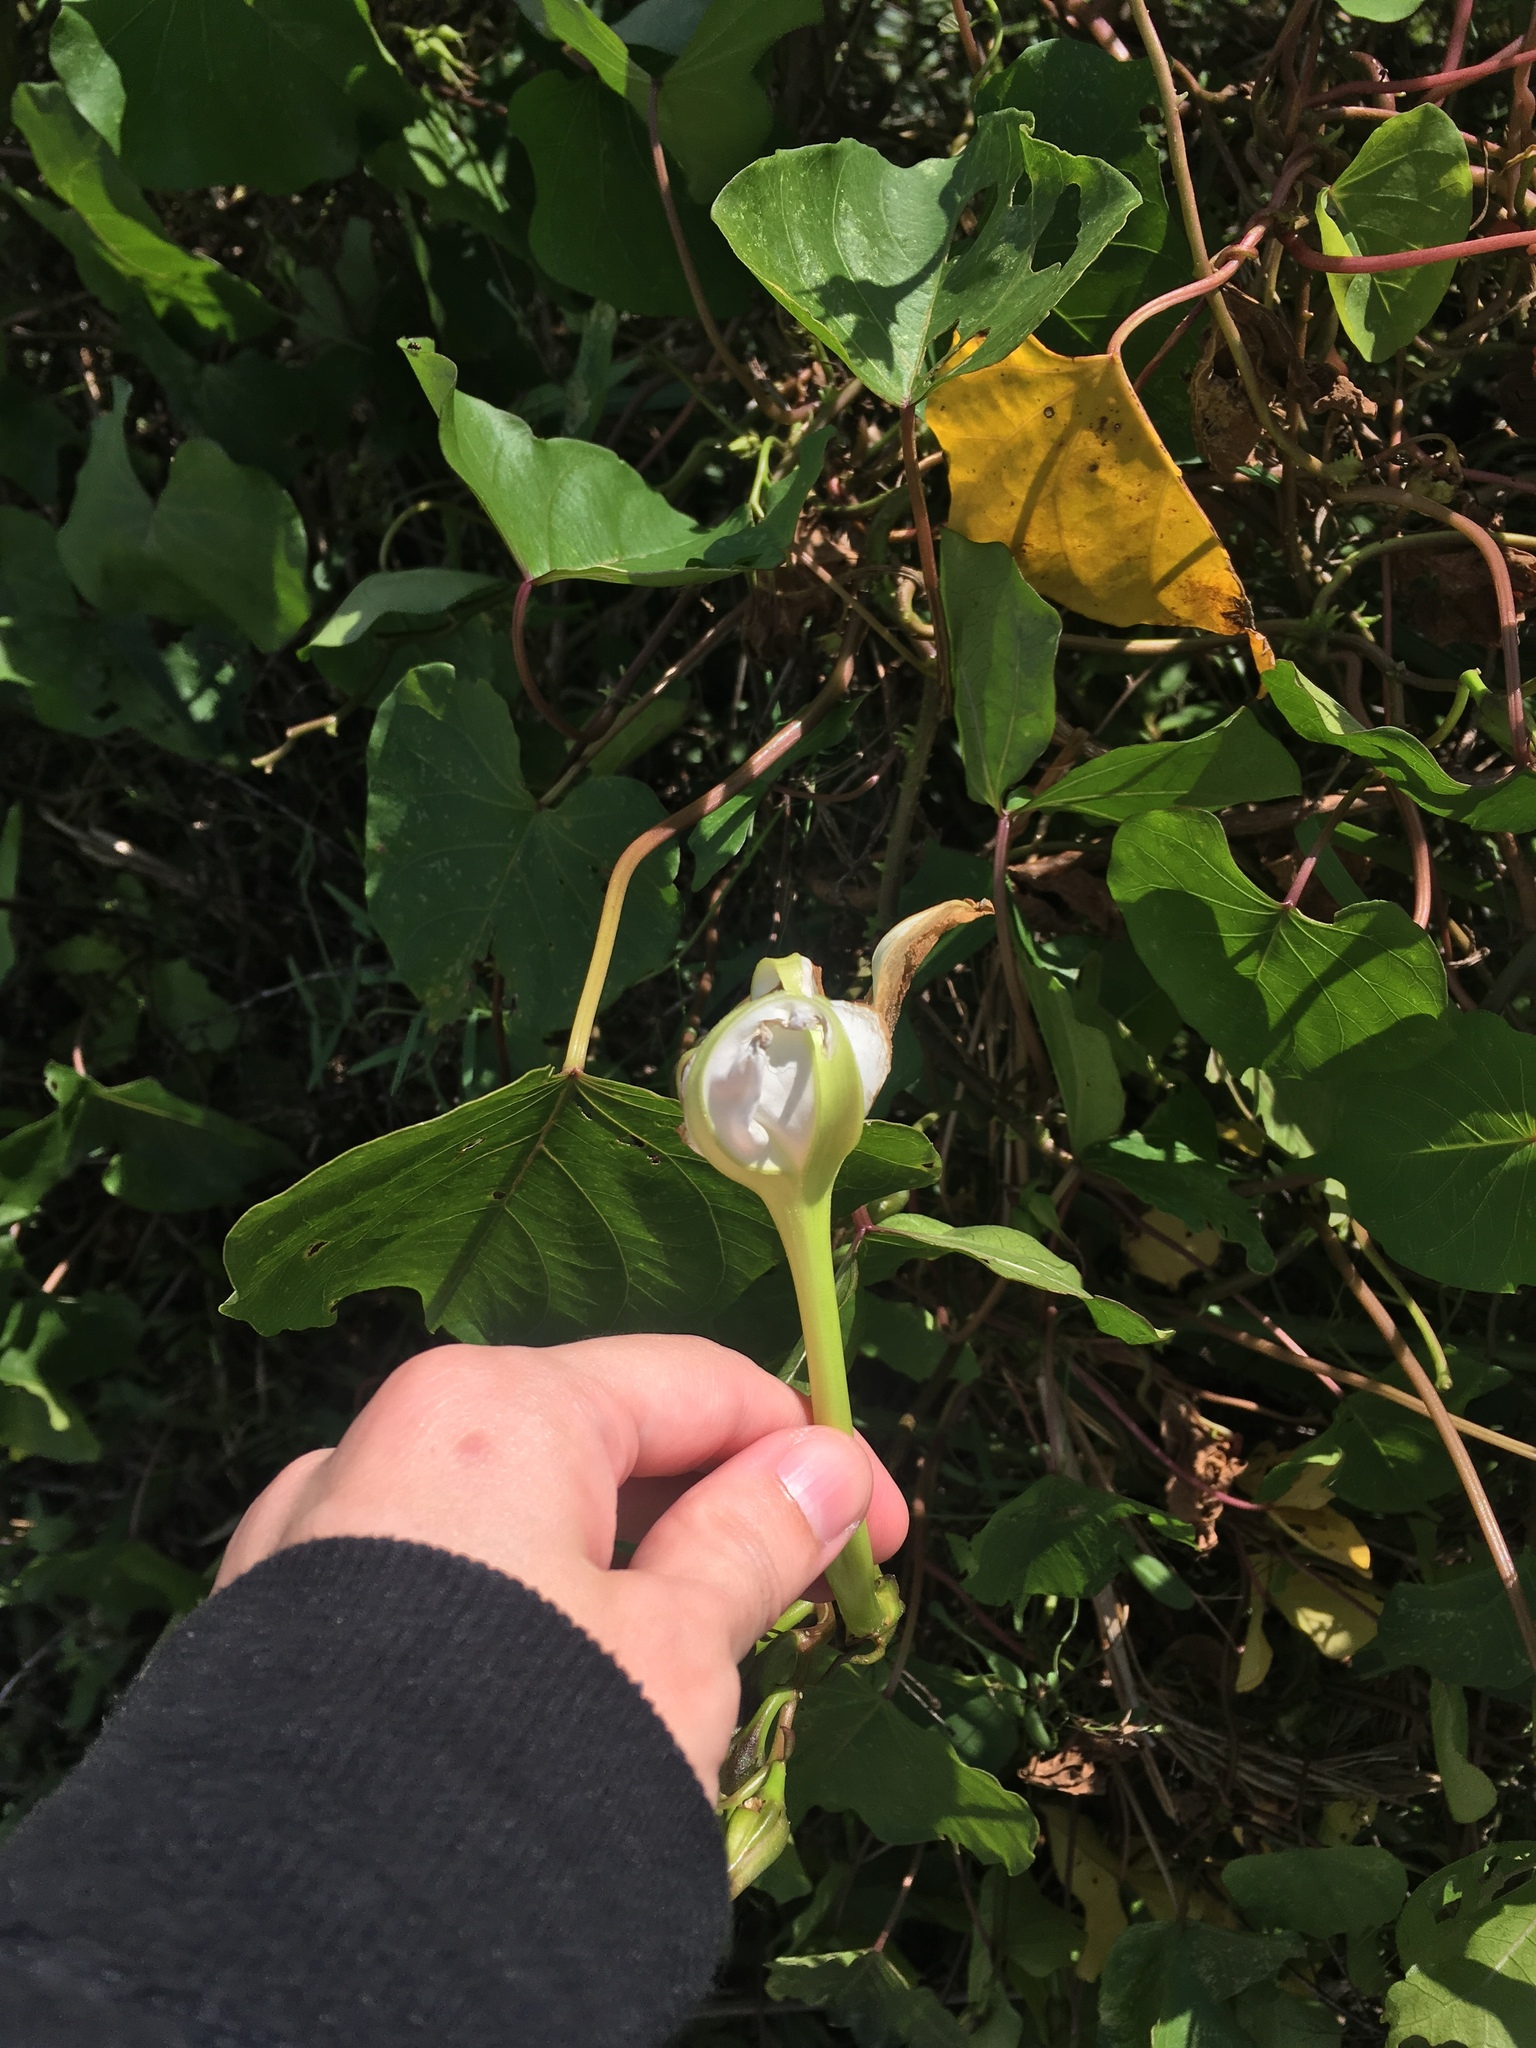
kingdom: Plantae
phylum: Tracheophyta
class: Magnoliopsida
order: Solanales
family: Convolvulaceae
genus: Ipomoea
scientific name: Ipomoea alba
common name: Moonflower
